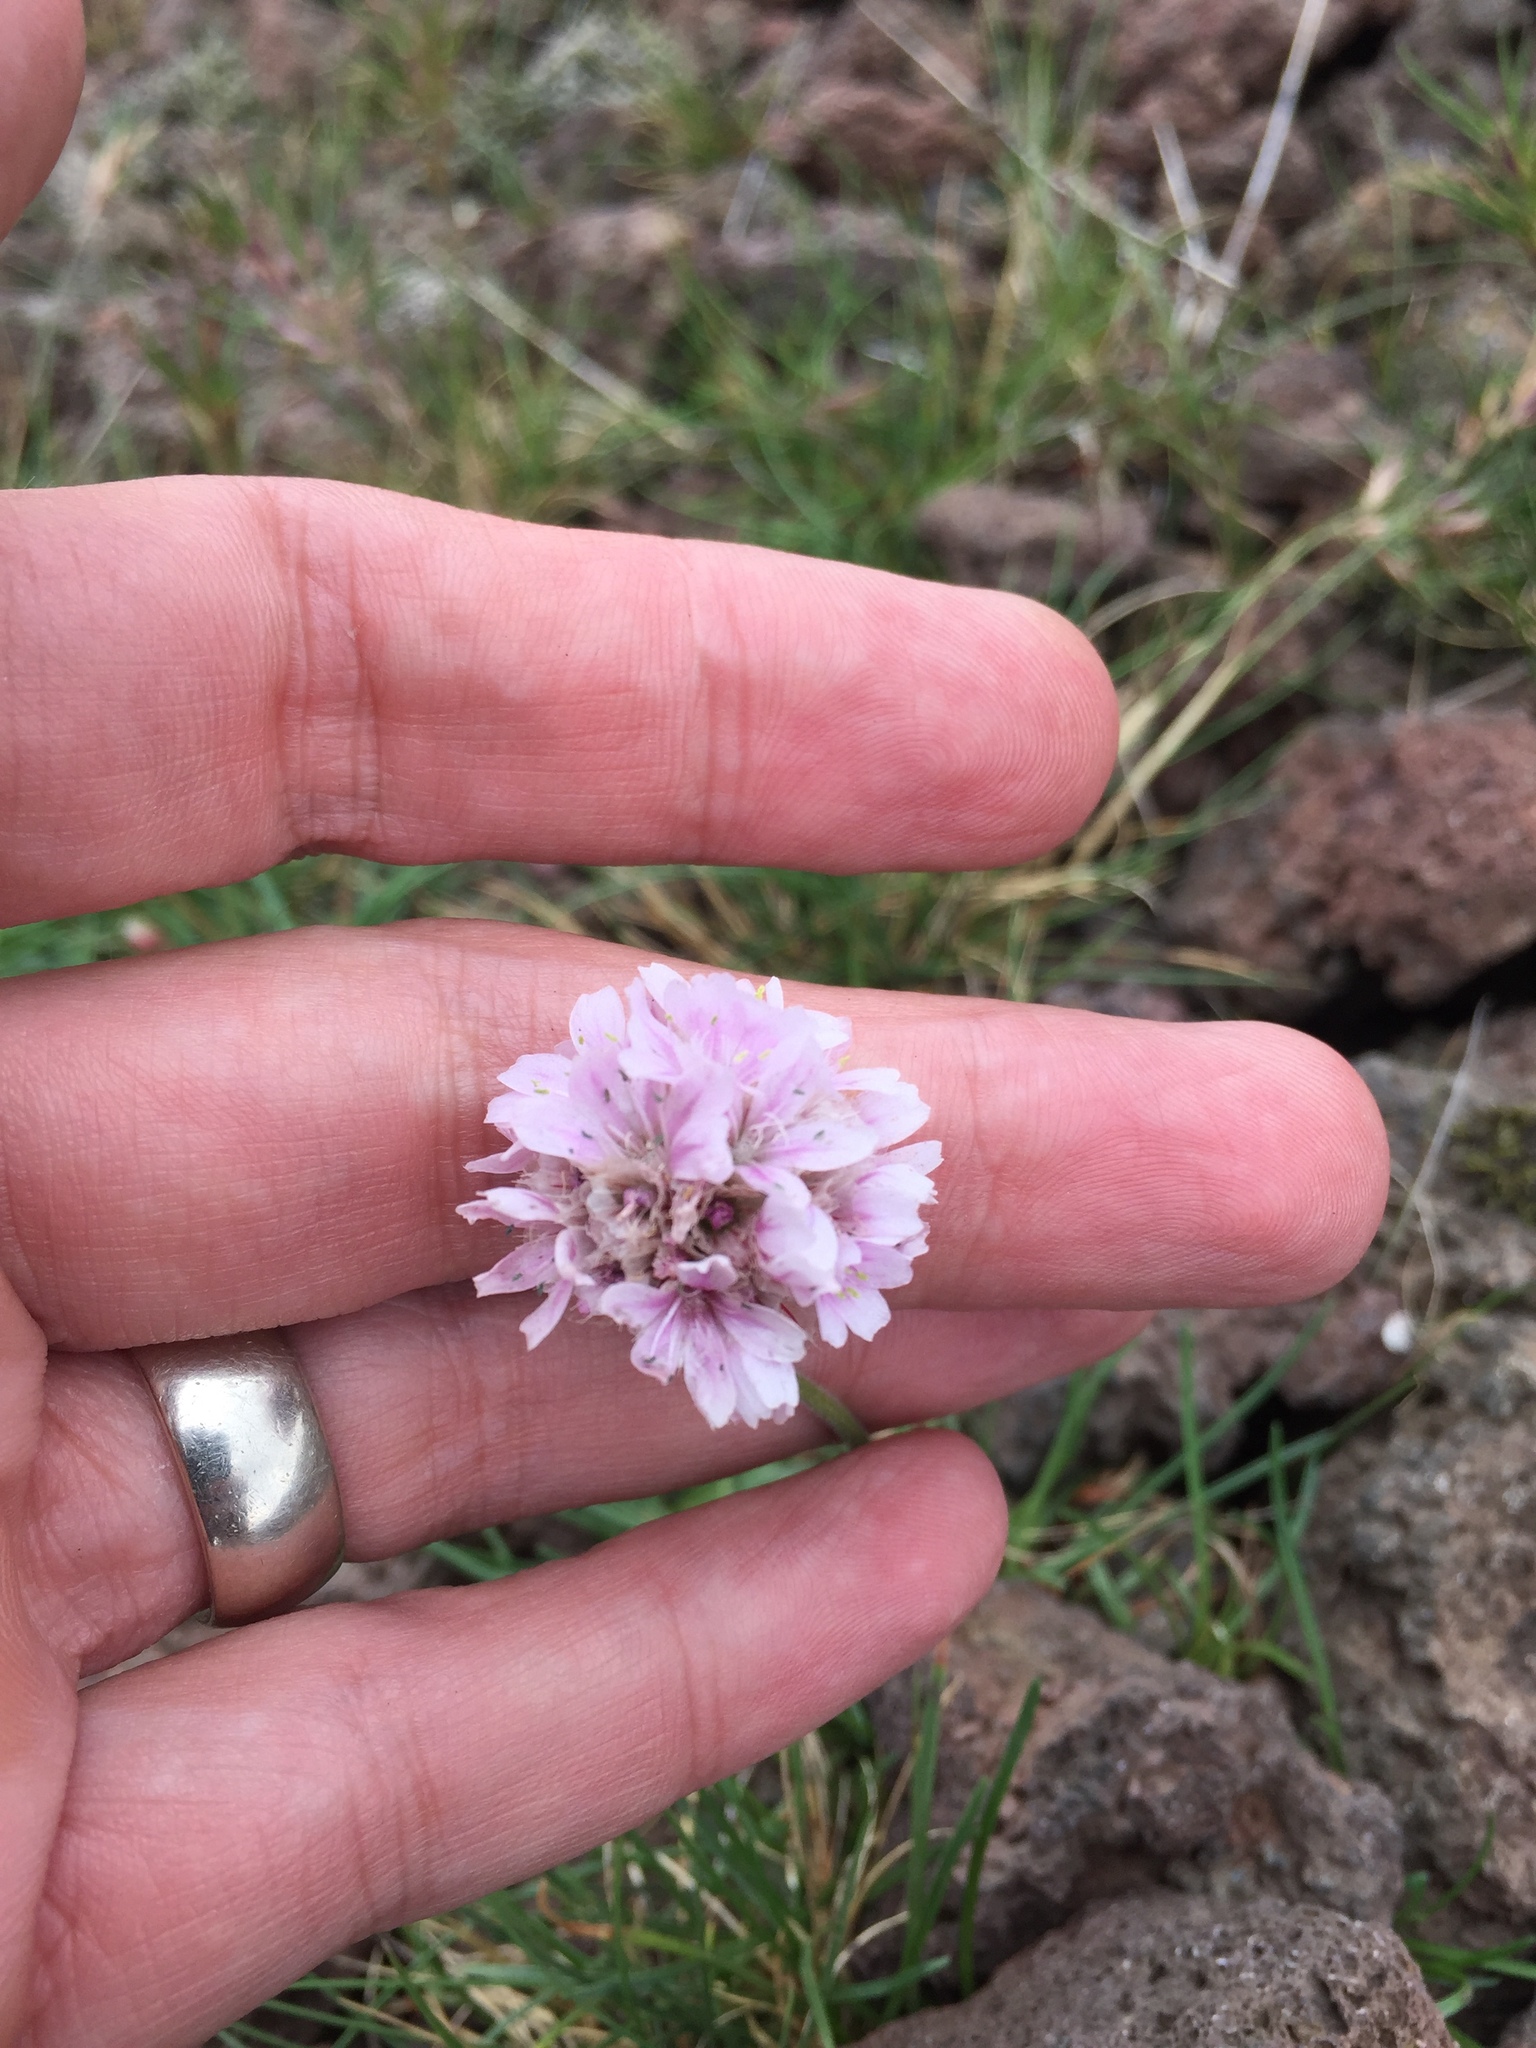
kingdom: Plantae
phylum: Tracheophyta
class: Magnoliopsida
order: Caryophyllales
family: Plumbaginaceae
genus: Armeria
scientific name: Armeria maritima
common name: Thrift
